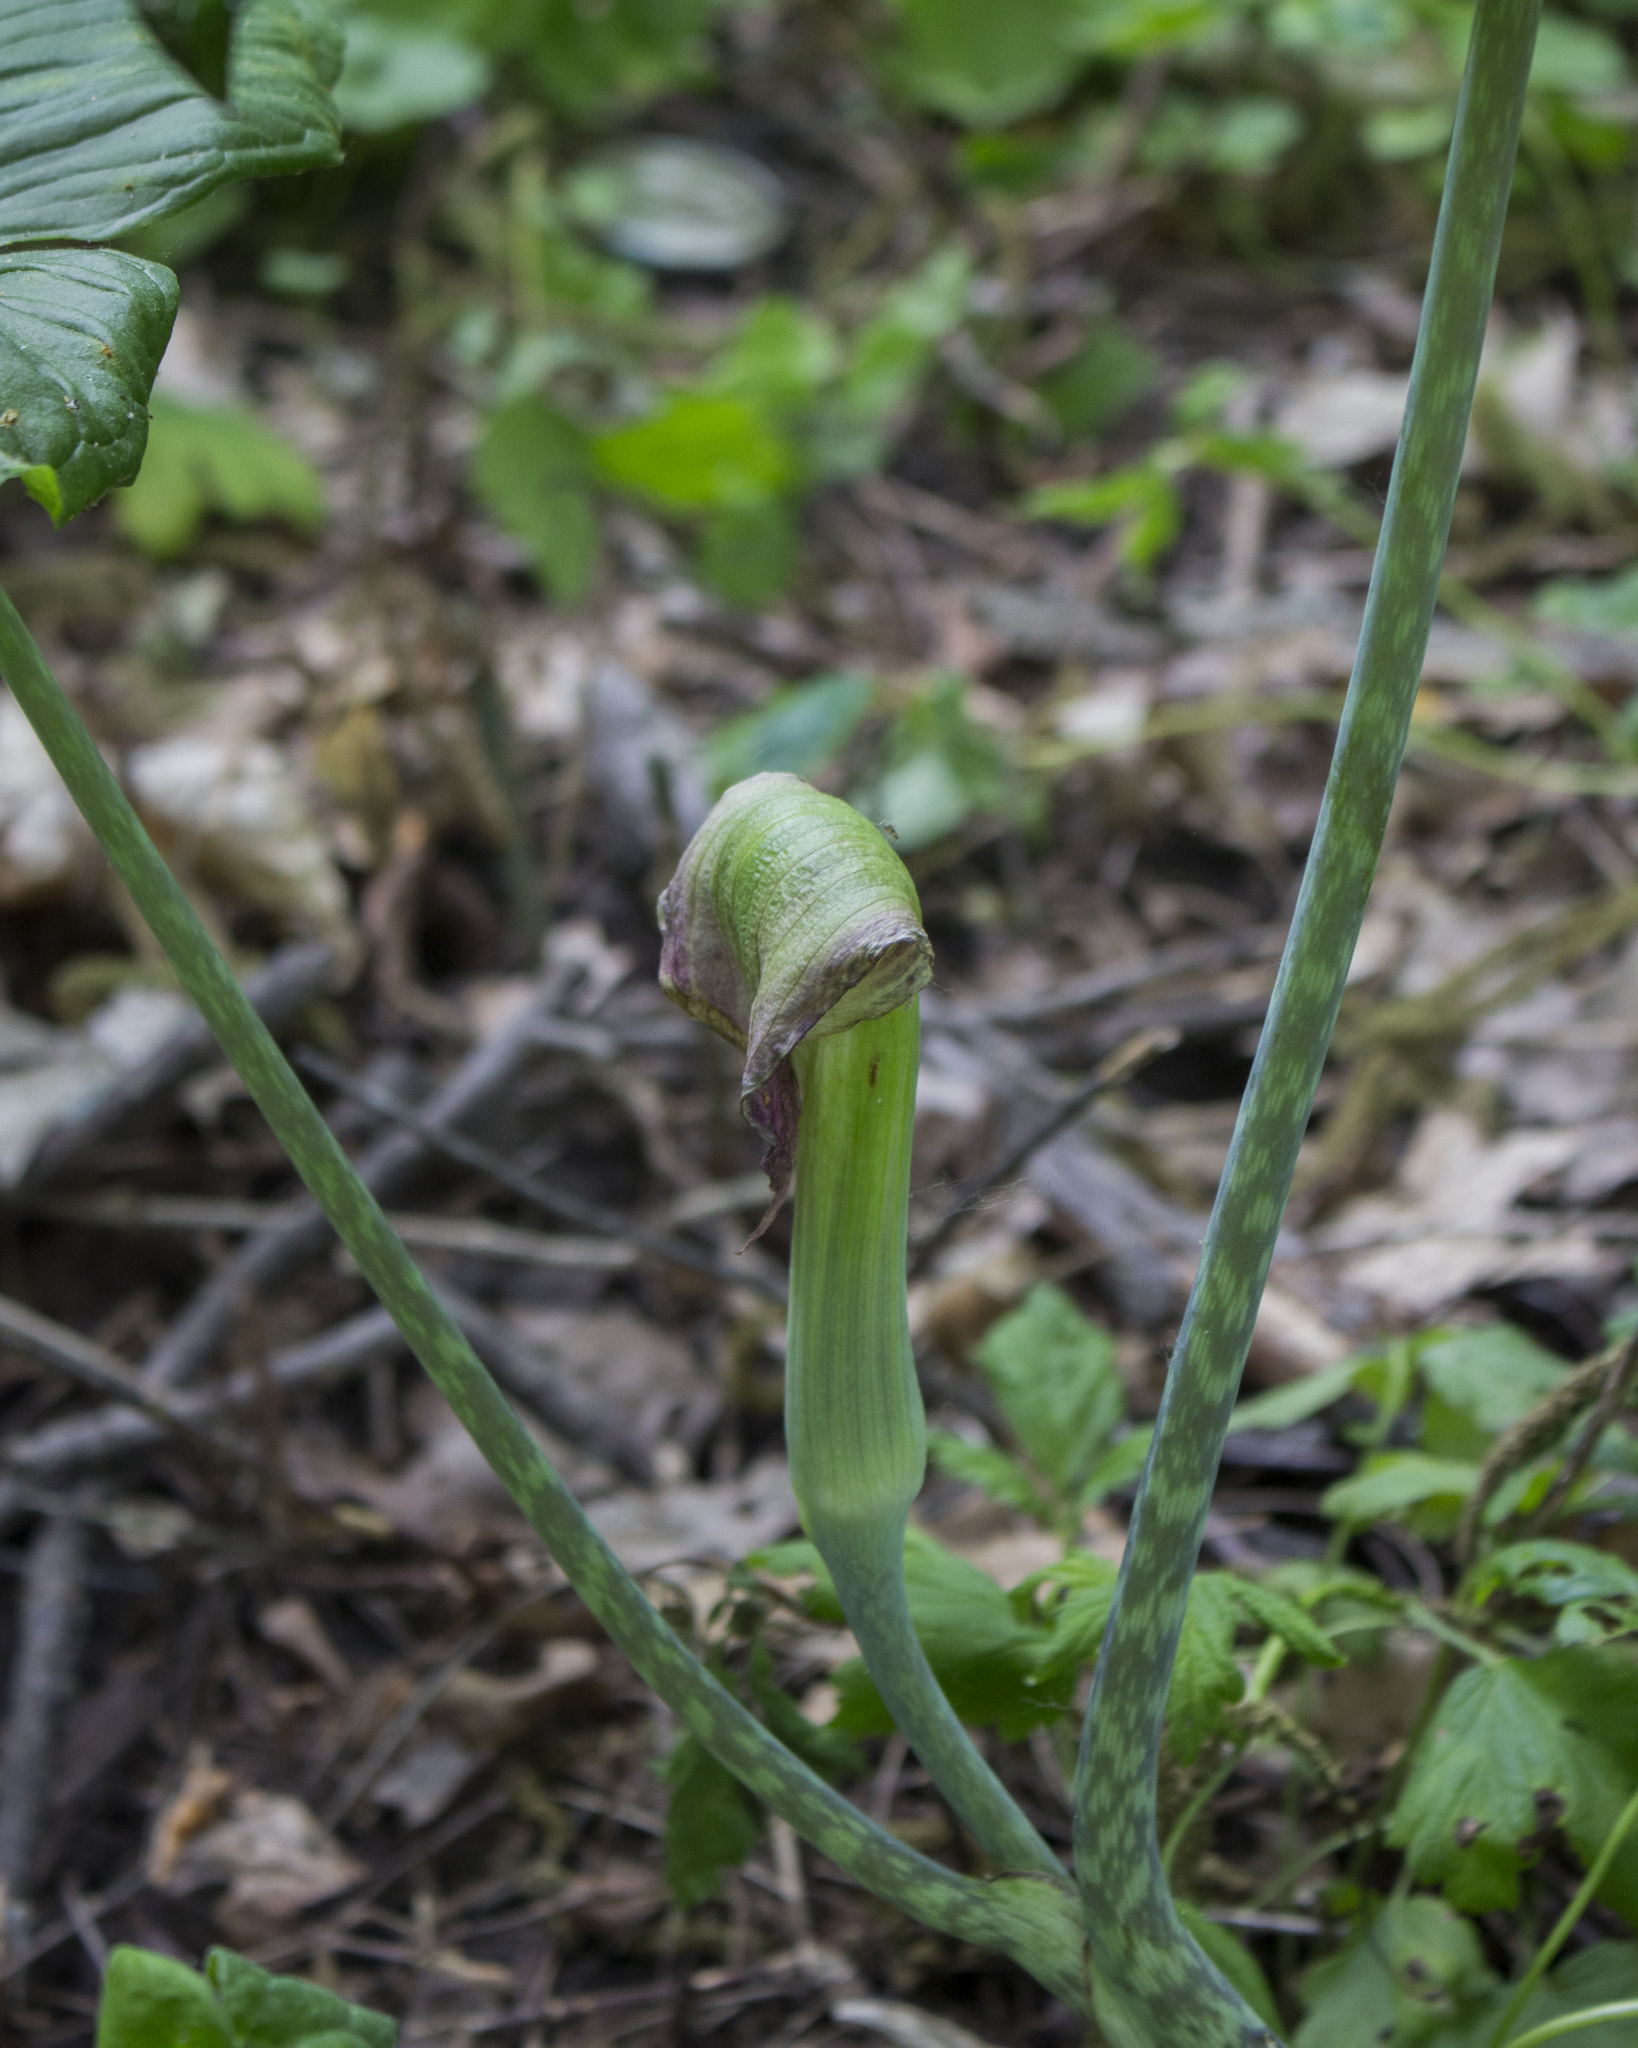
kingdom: Plantae
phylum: Tracheophyta
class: Liliopsida
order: Alismatales
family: Araceae
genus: Arisaema
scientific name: Arisaema triphyllum
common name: Jack-in-the-pulpit
